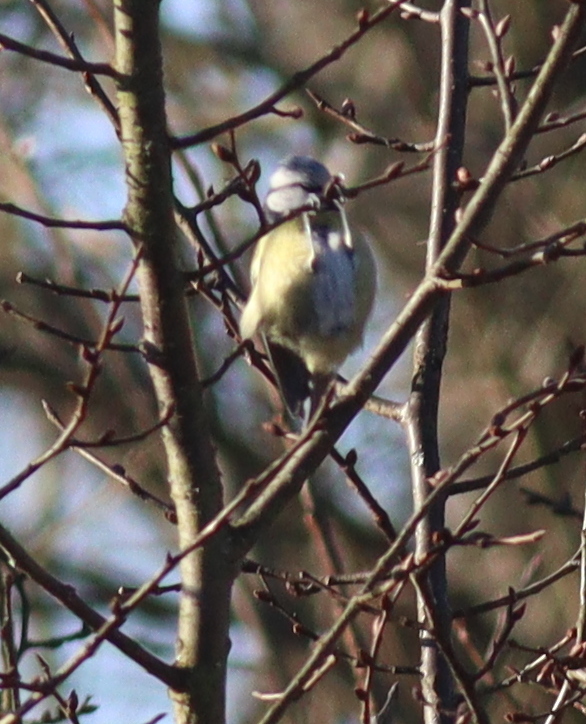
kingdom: Animalia
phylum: Chordata
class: Aves
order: Passeriformes
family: Paridae
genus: Cyanistes
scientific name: Cyanistes caeruleus
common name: Eurasian blue tit
